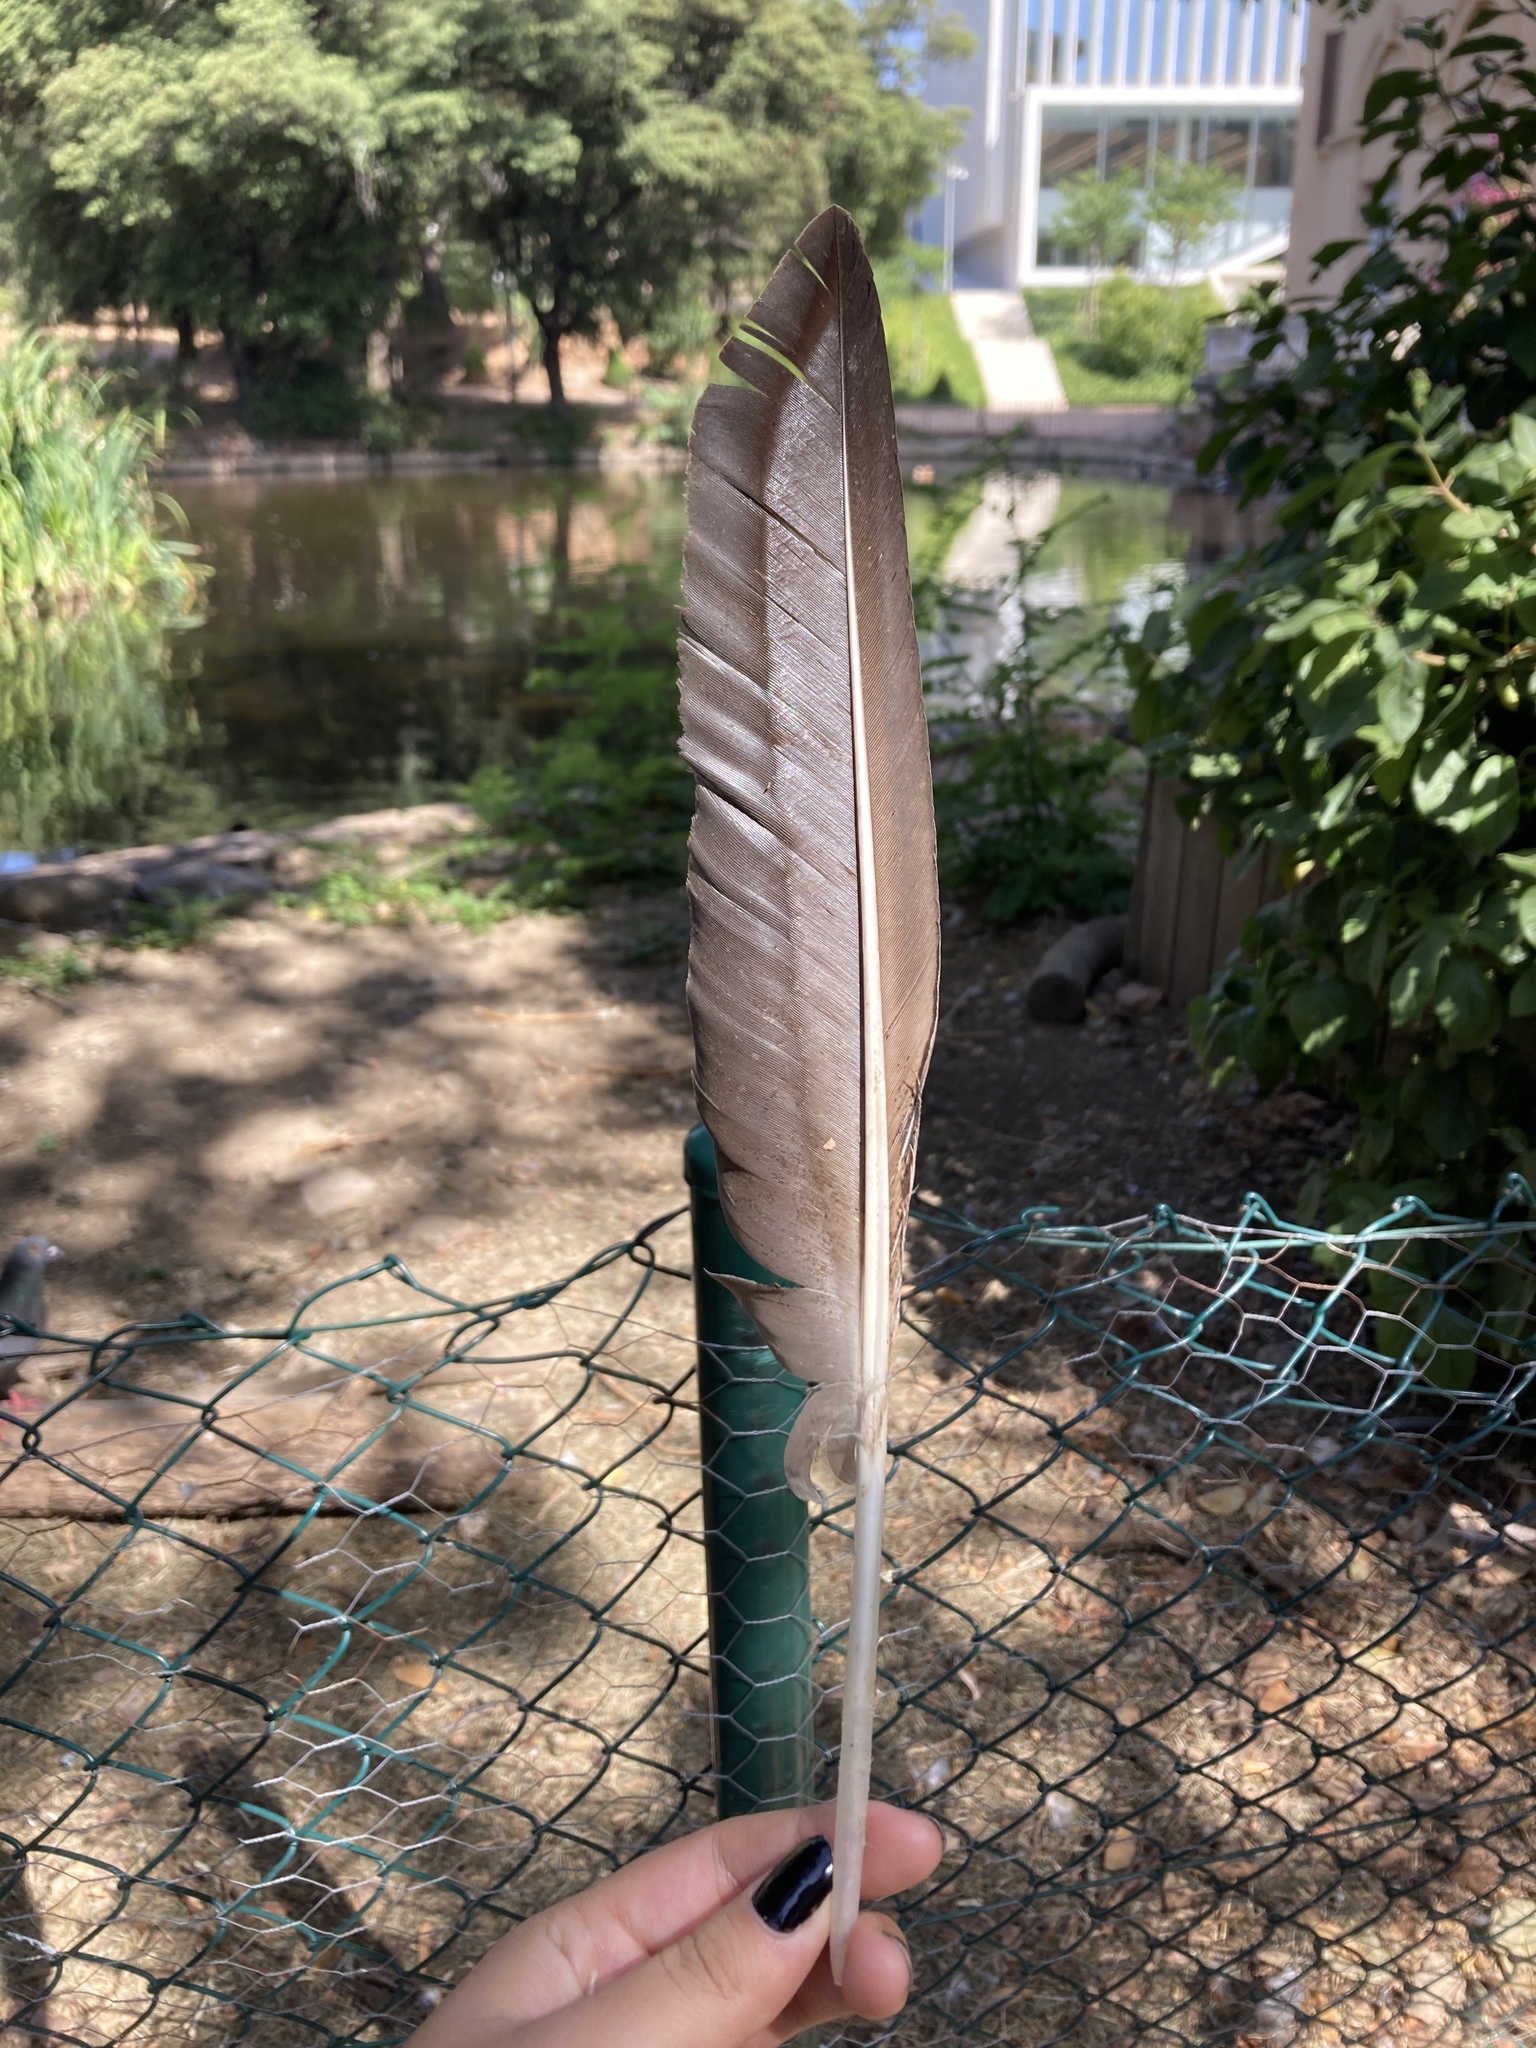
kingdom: Animalia
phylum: Chordata
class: Aves
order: Anseriformes
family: Anatidae
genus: Anser
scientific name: Anser anser
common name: Greylag goose
